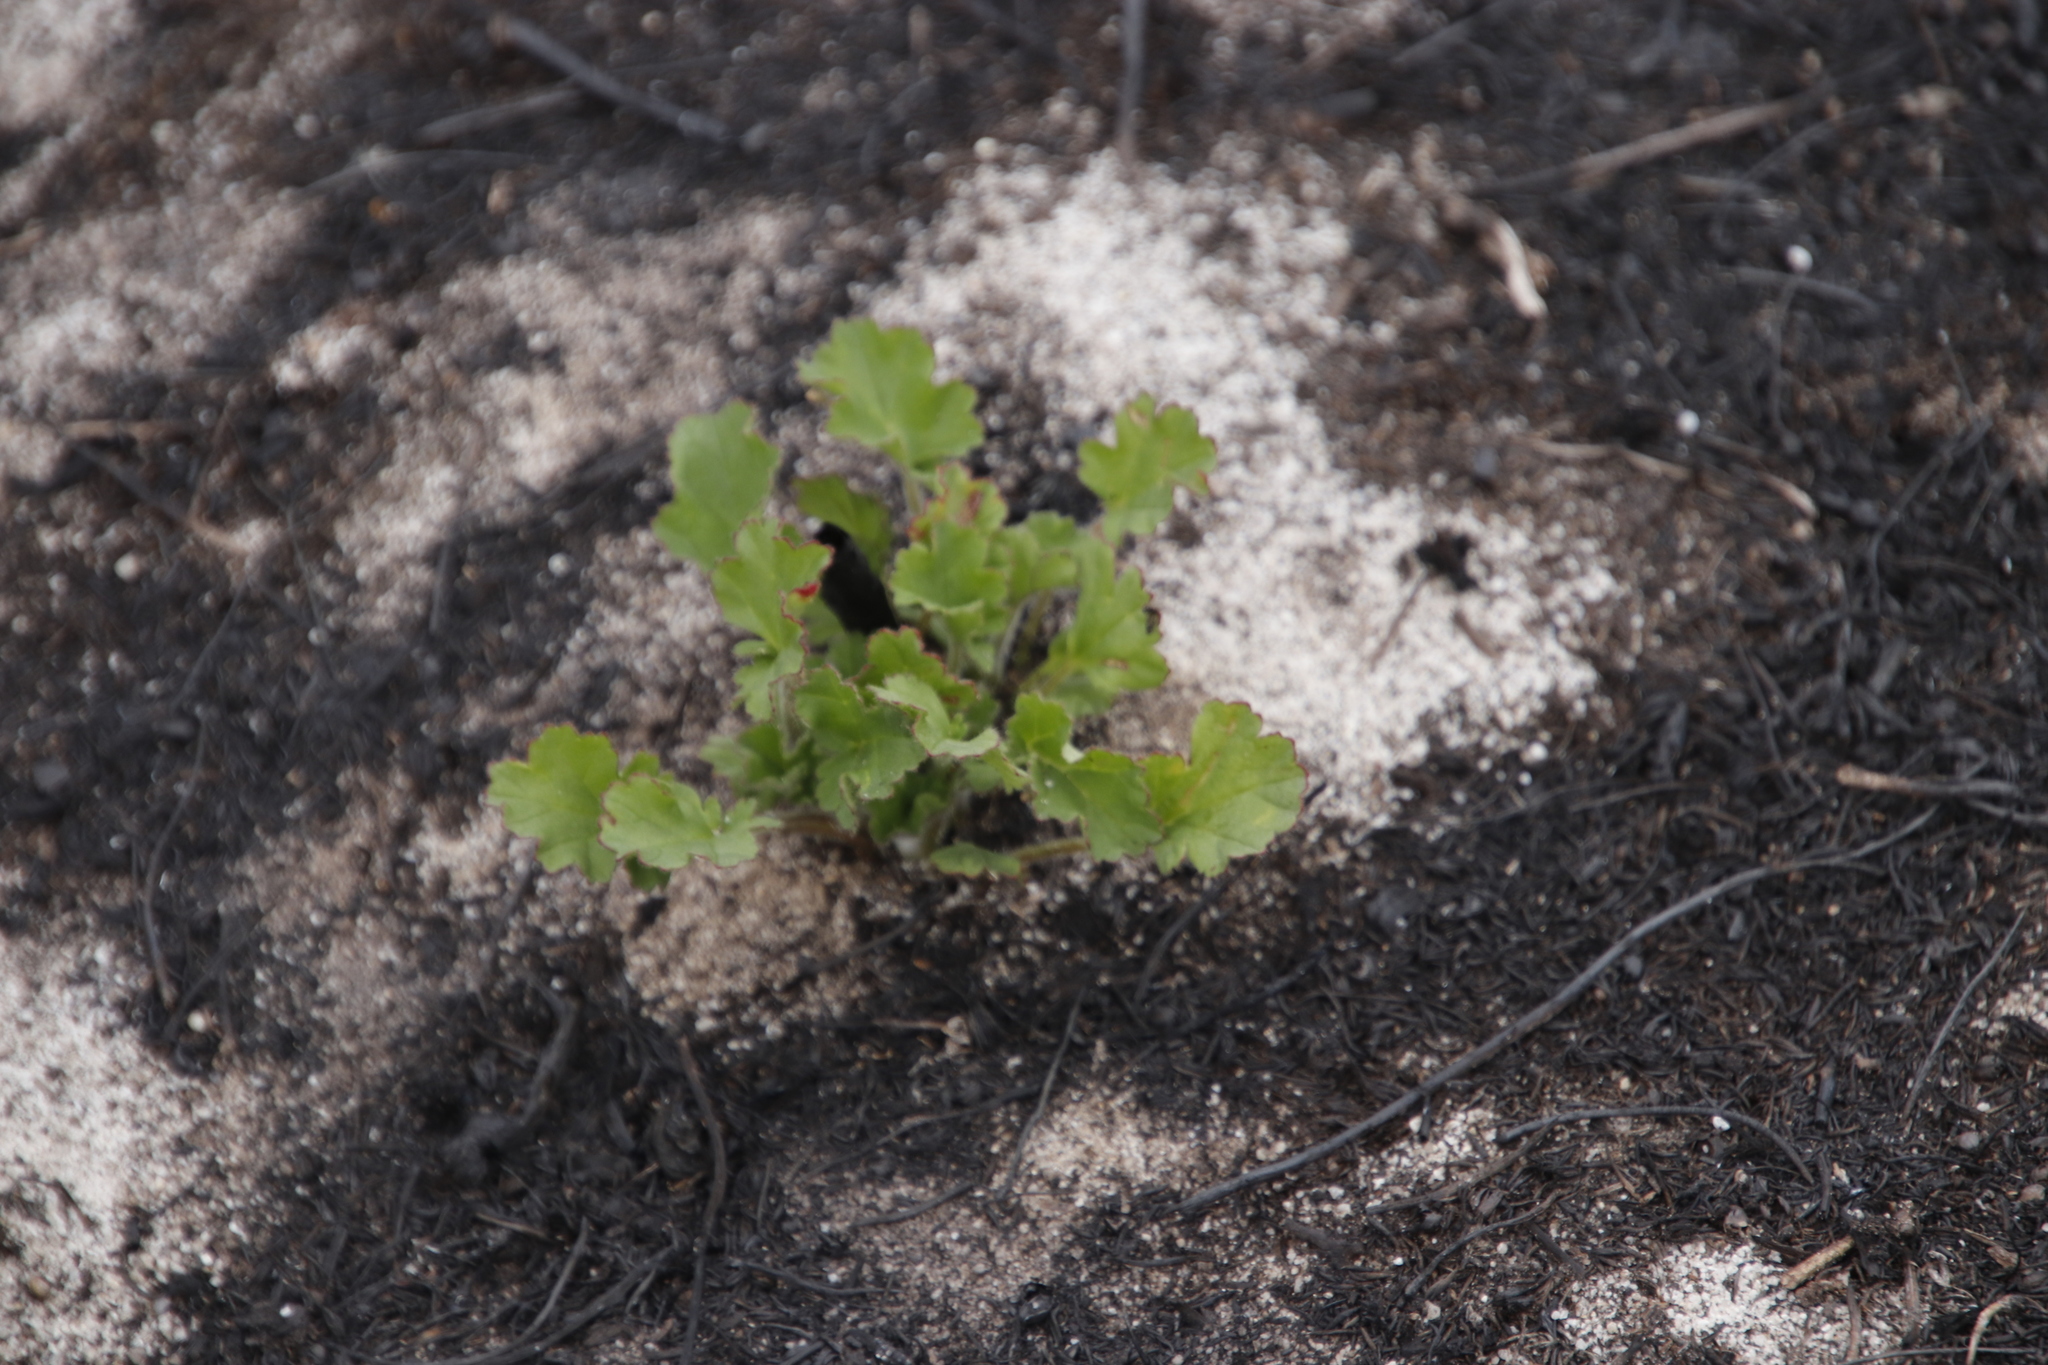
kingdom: Plantae
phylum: Tracheophyta
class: Magnoliopsida
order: Geraniales
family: Geraniaceae
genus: Pelargonium
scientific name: Pelargonium althaeoides
